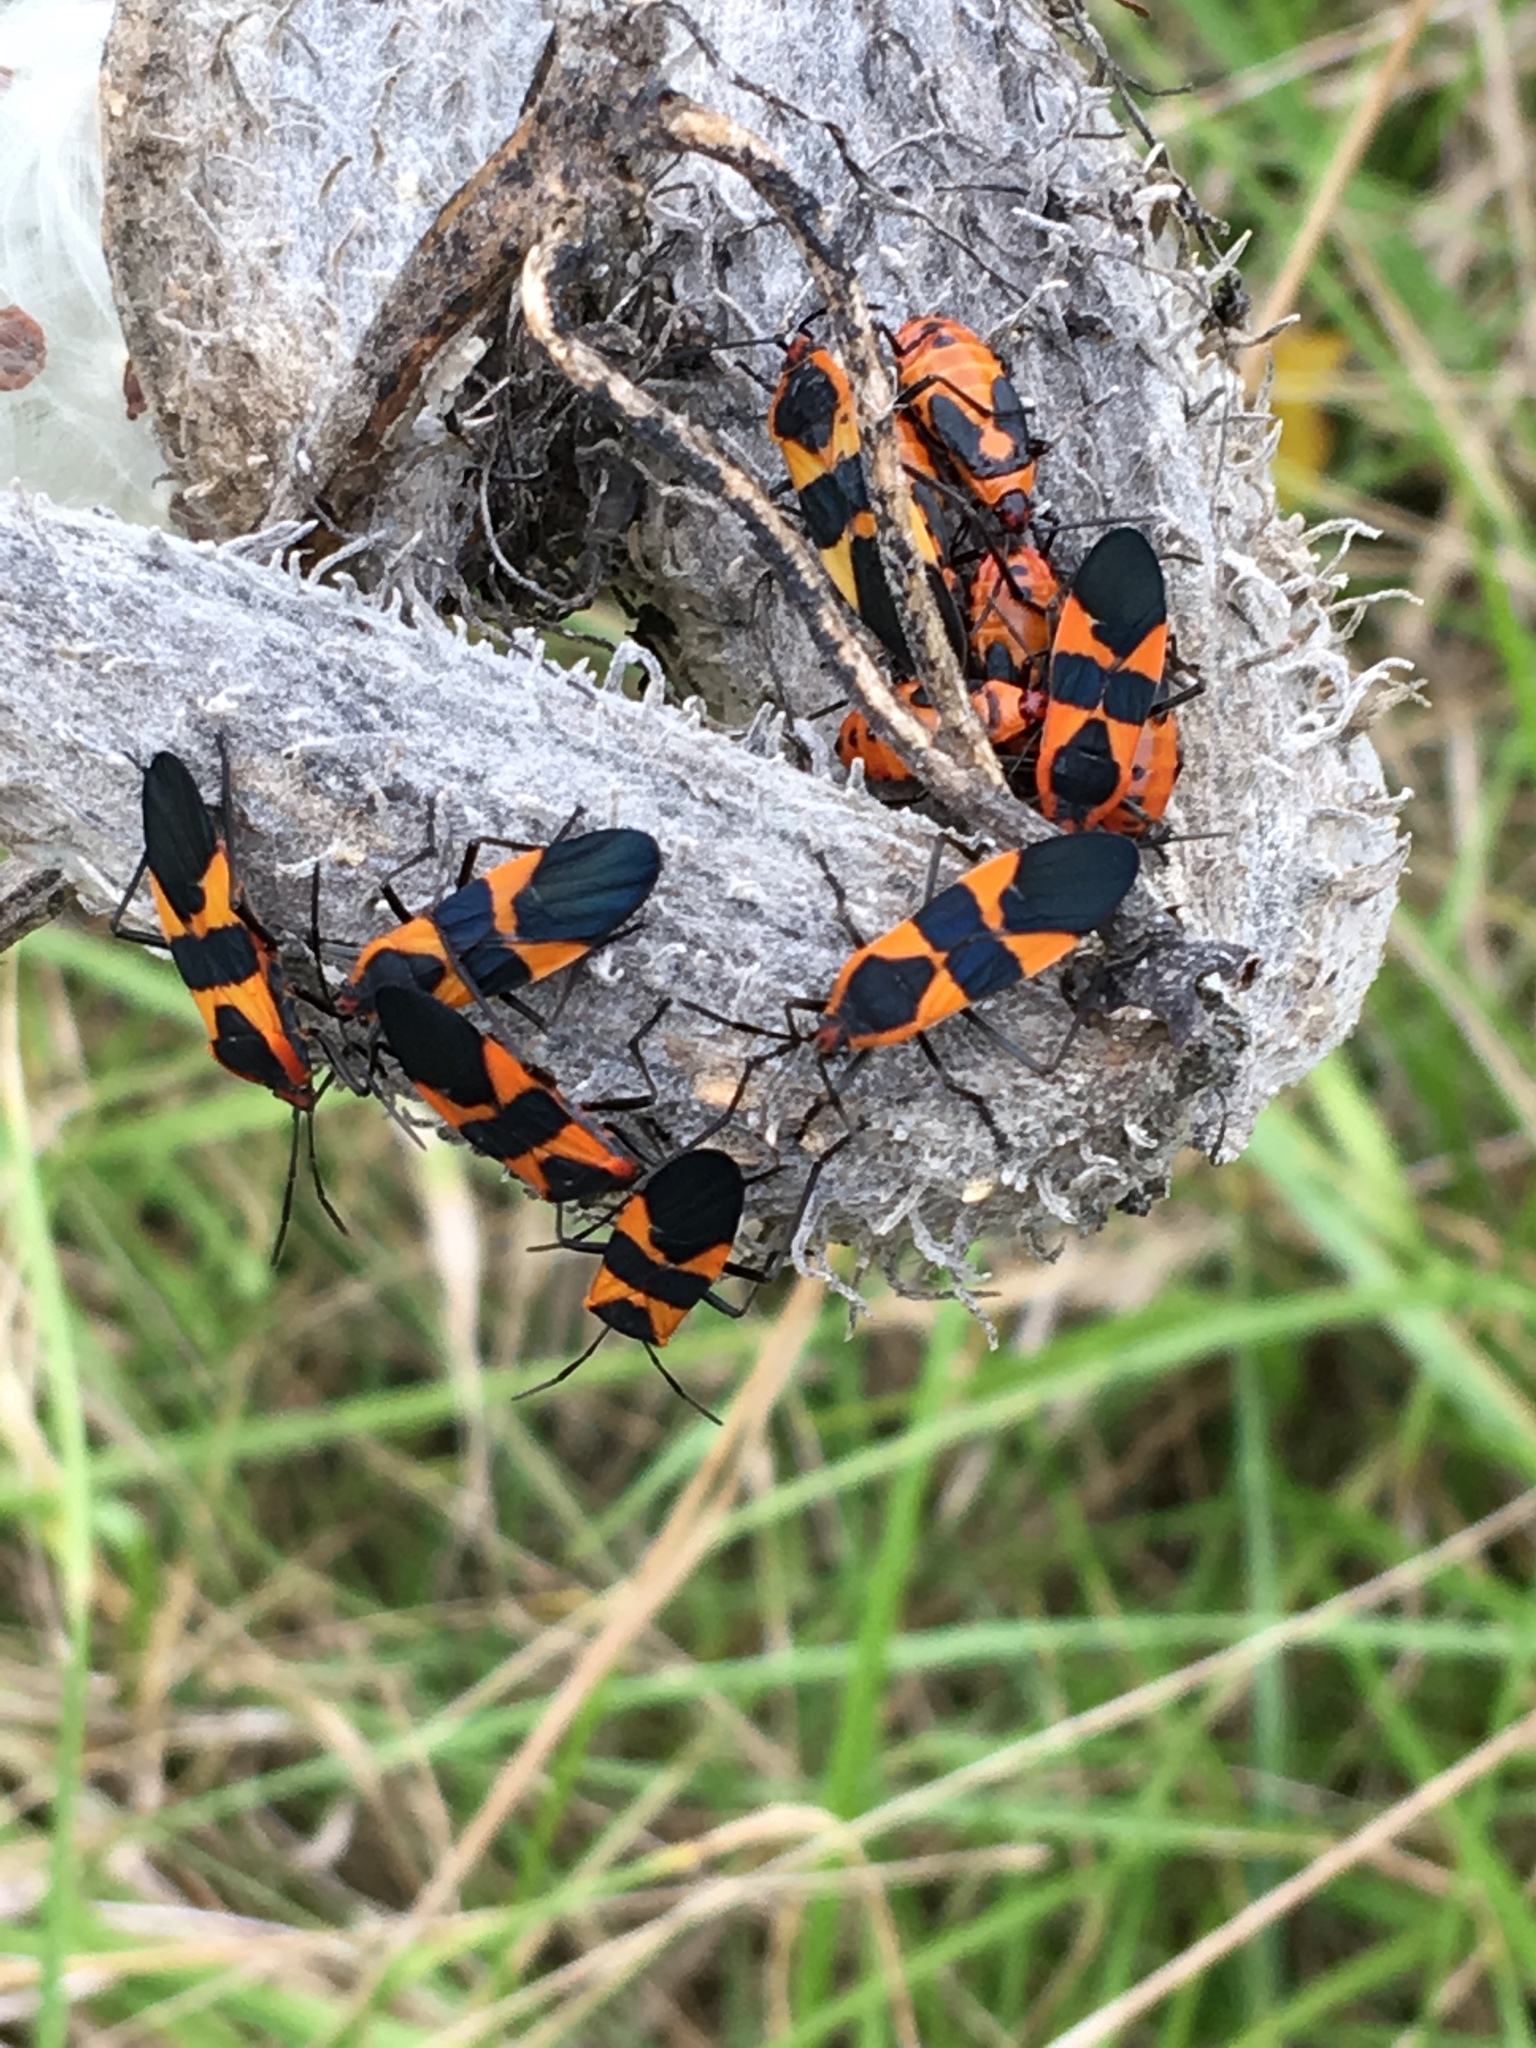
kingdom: Animalia
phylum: Arthropoda
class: Insecta
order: Hemiptera
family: Lygaeidae
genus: Oncopeltus
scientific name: Oncopeltus fasciatus
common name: Large milkweed bug
